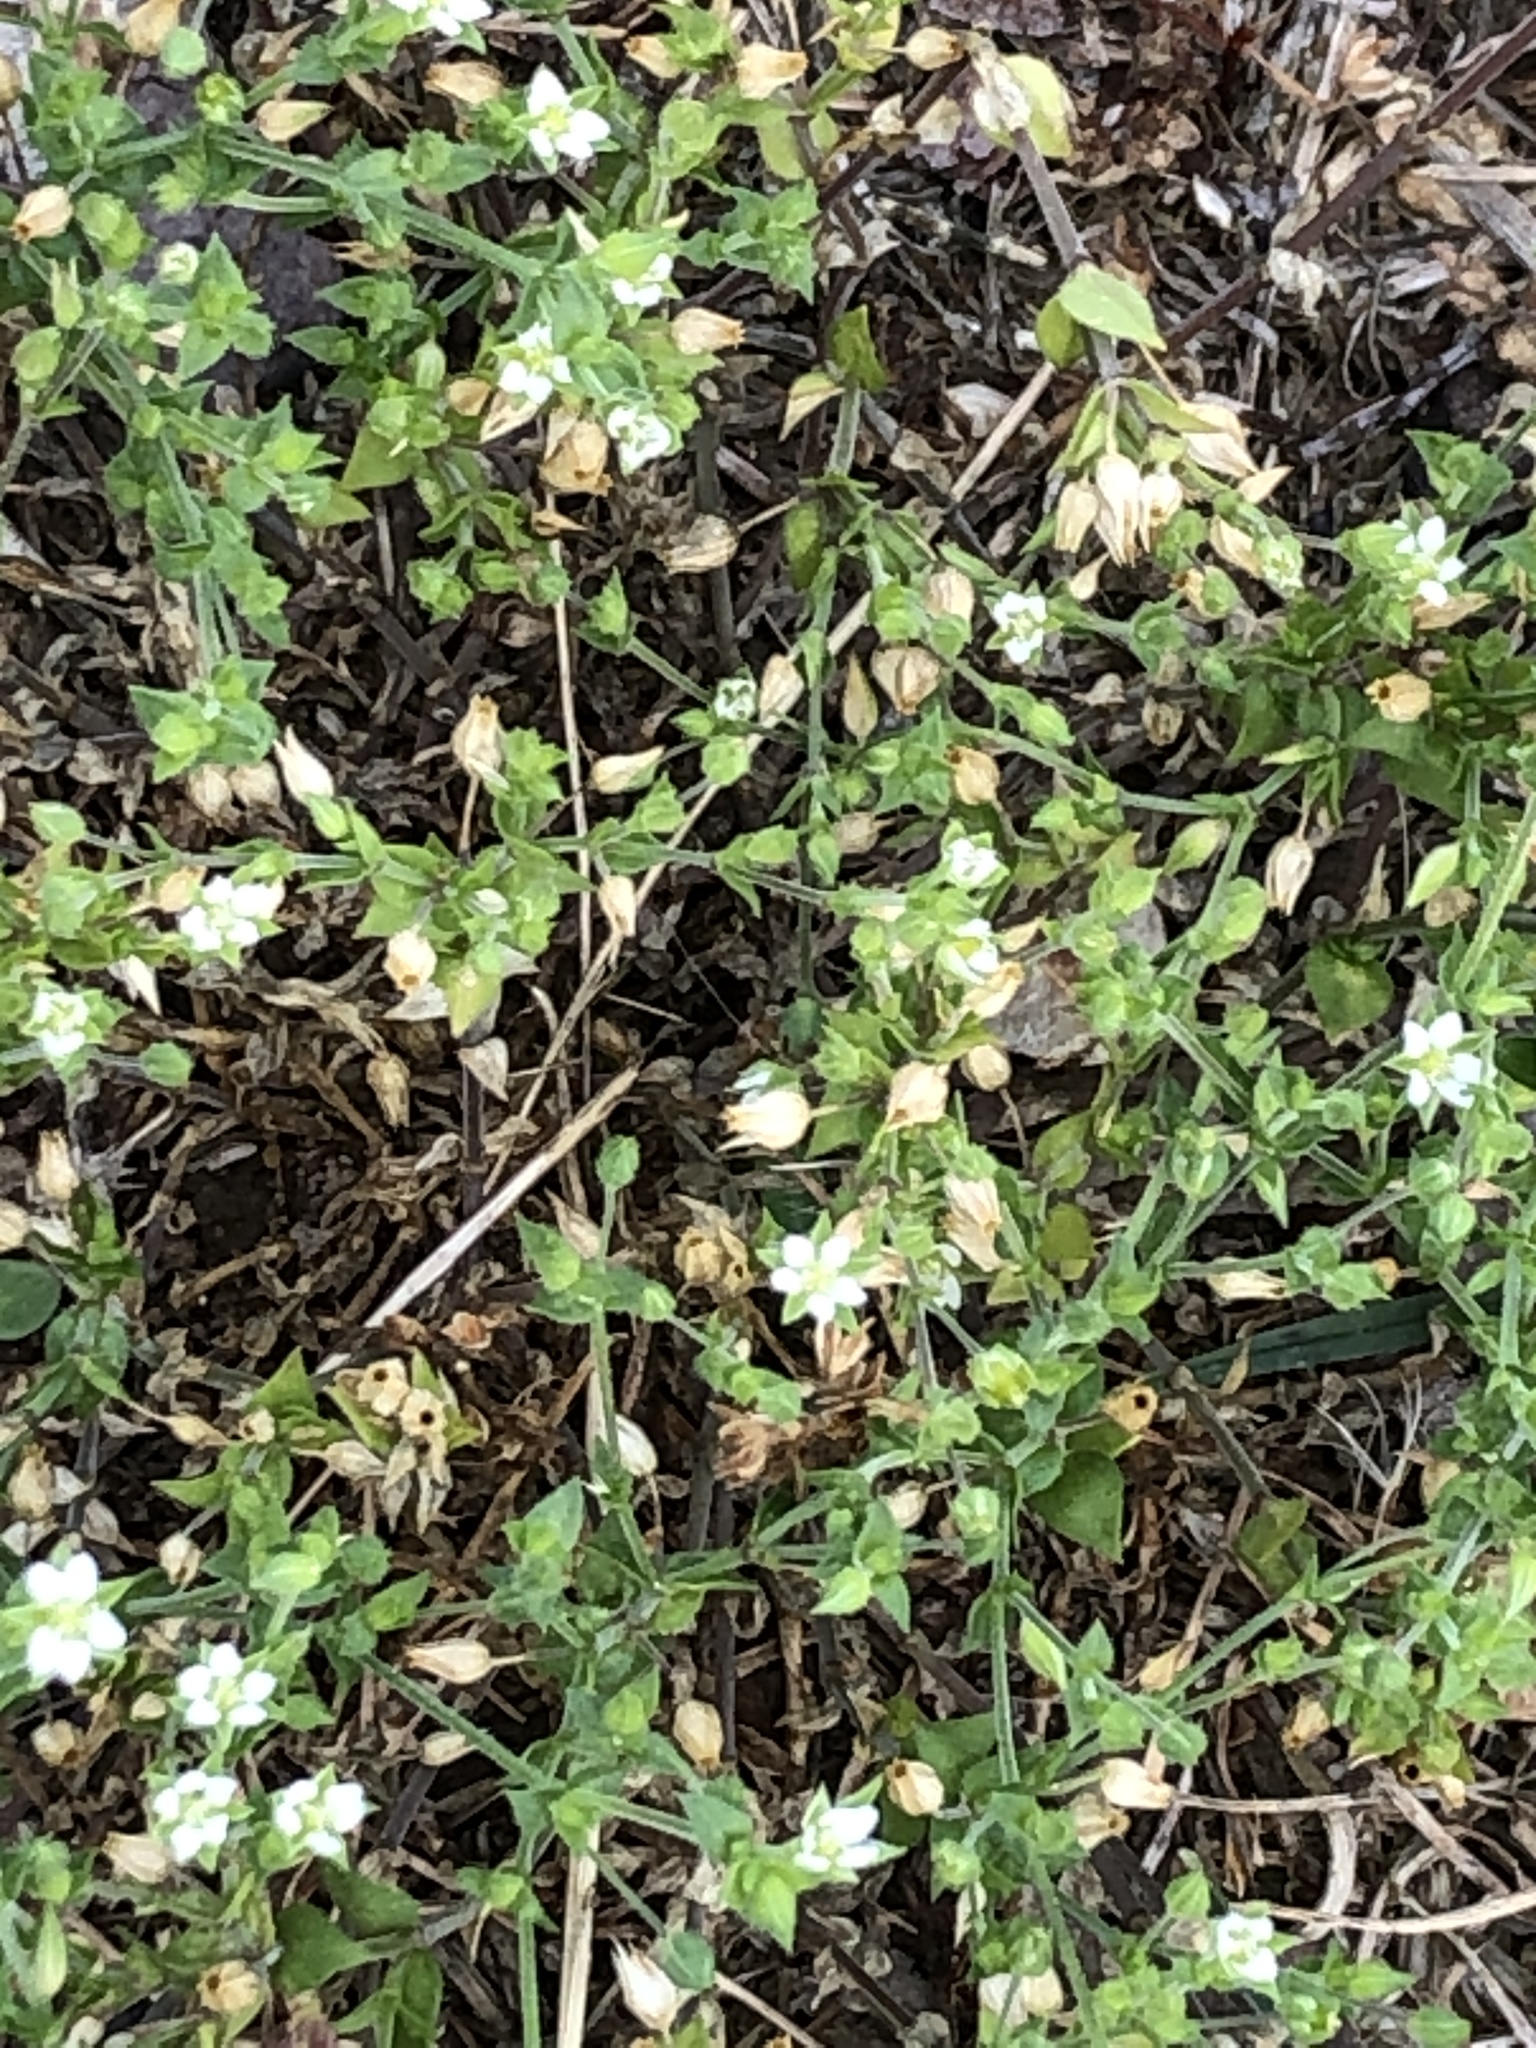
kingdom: Plantae
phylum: Tracheophyta
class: Magnoliopsida
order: Caryophyllales
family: Caryophyllaceae
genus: Arenaria
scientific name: Arenaria serpyllifolia
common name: Thyme-leaved sandwort
